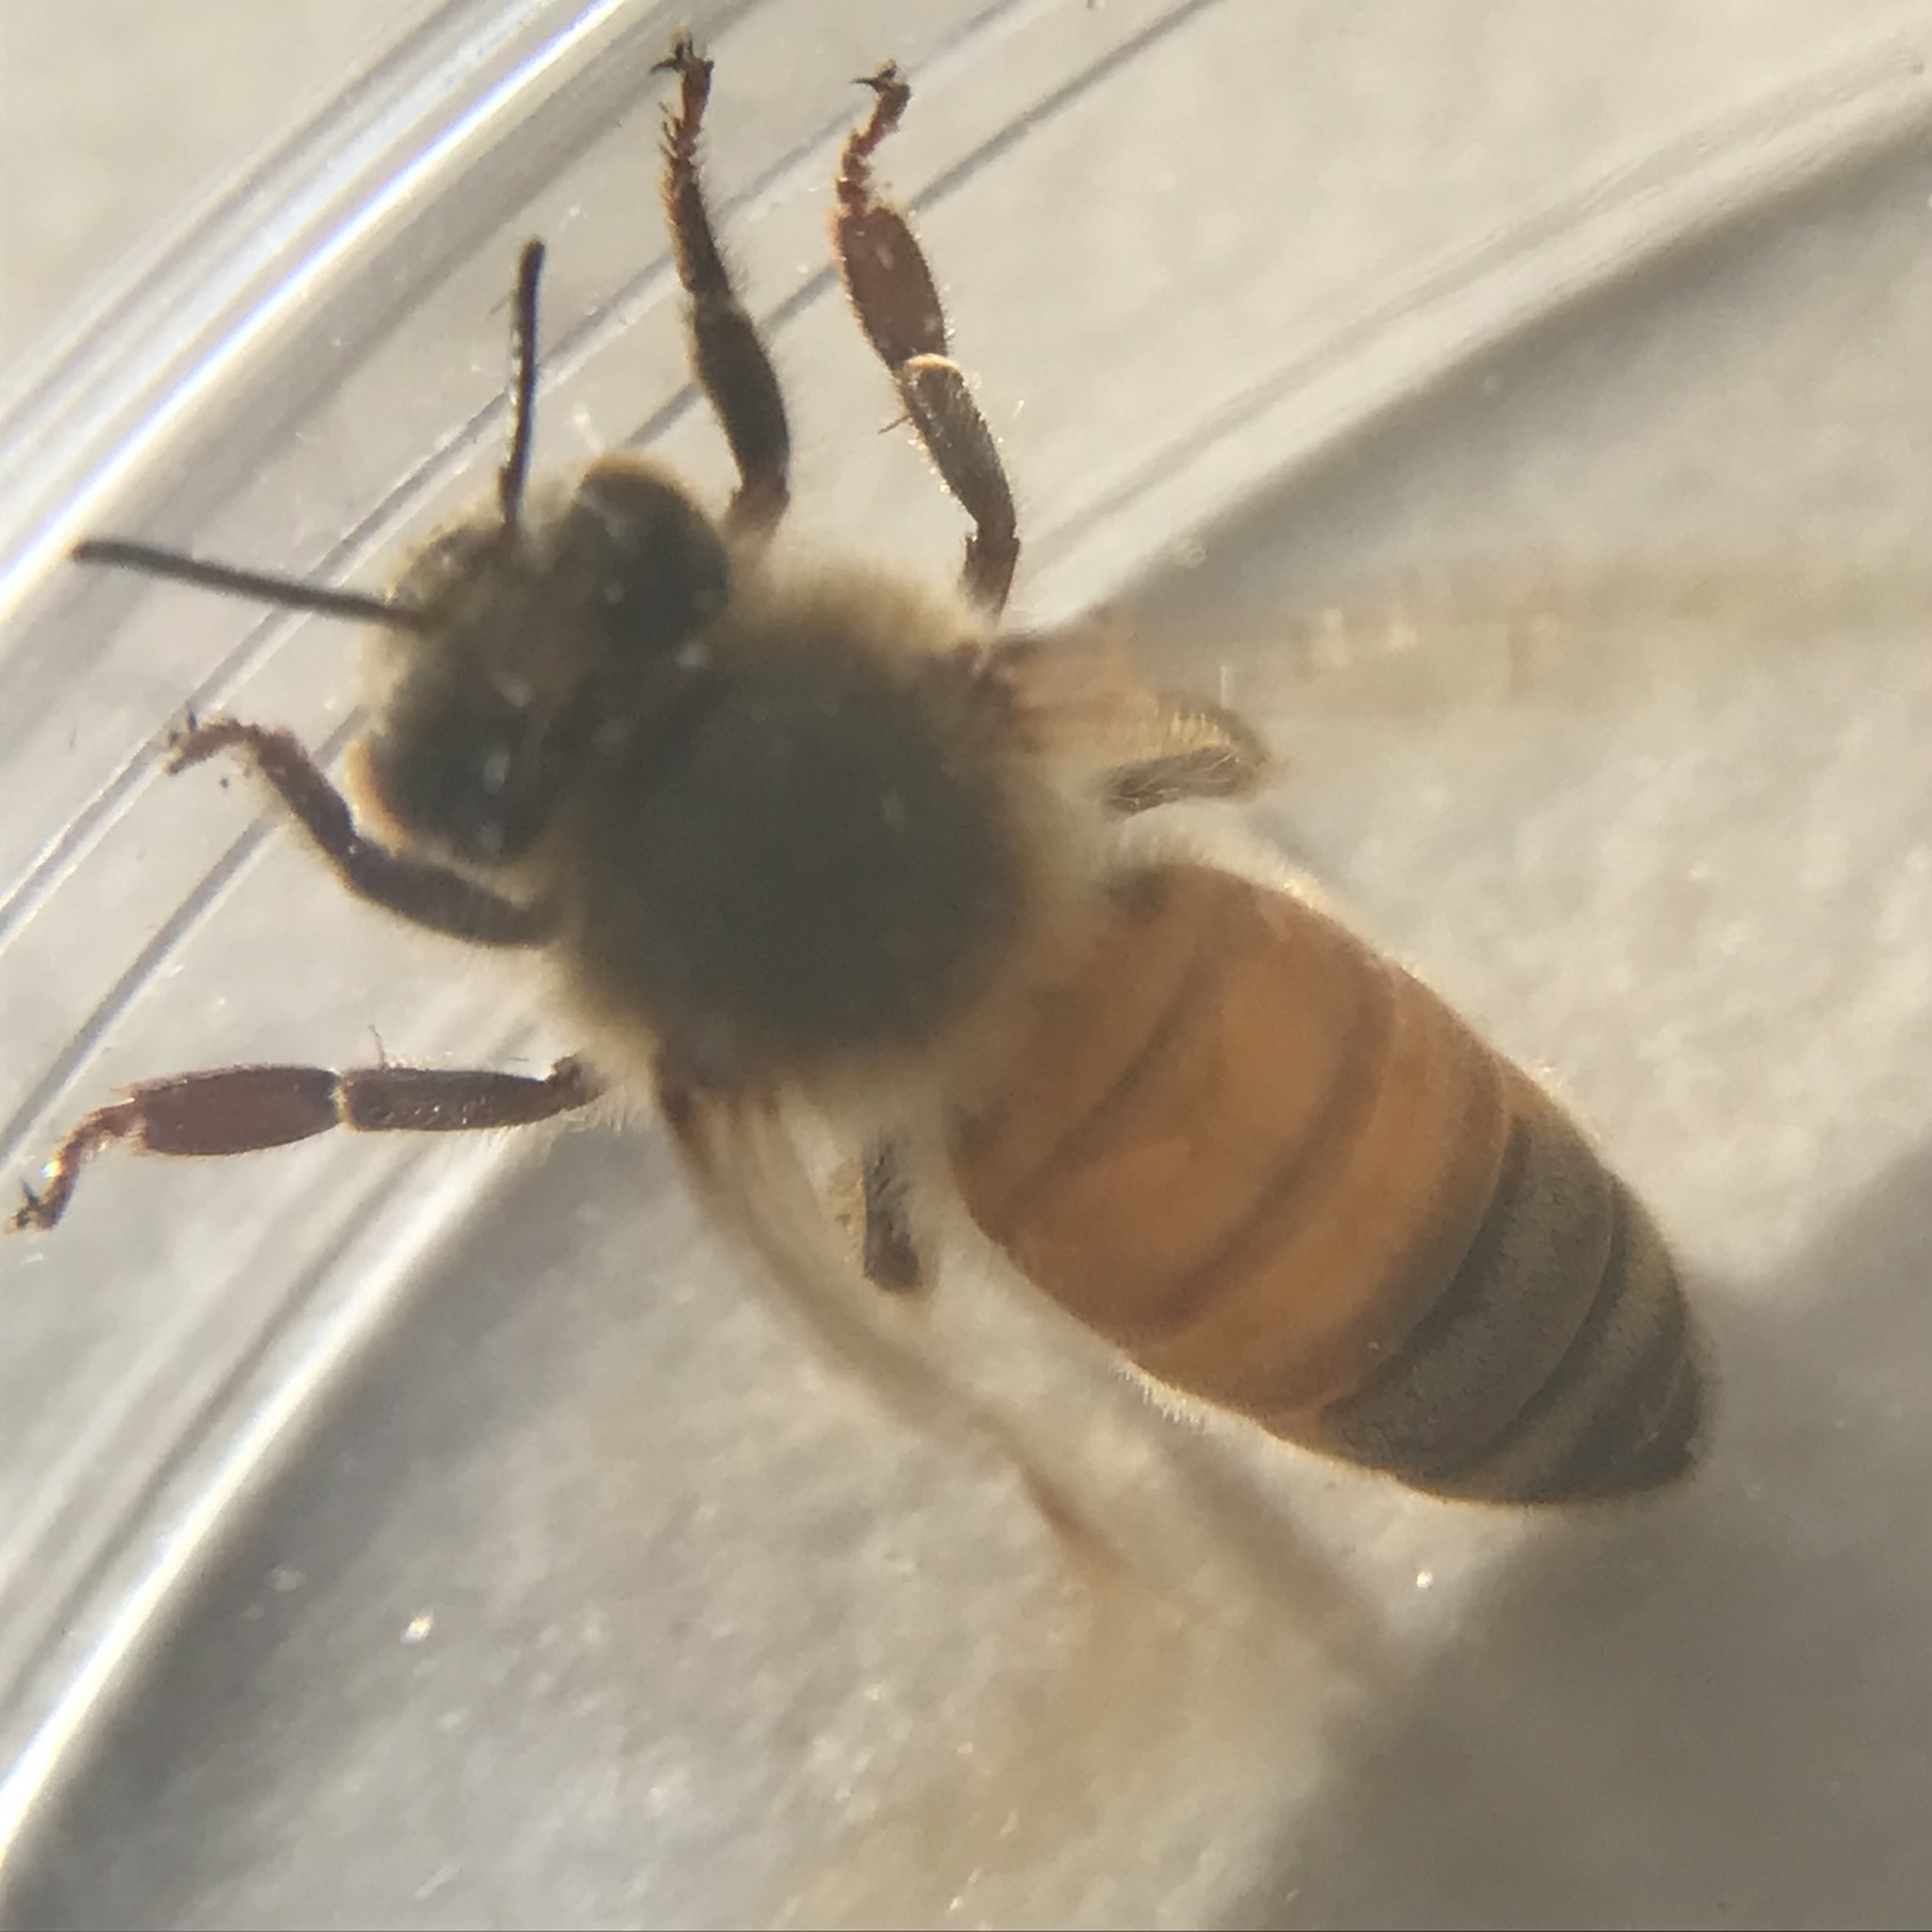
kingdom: Animalia
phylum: Arthropoda
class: Insecta
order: Hymenoptera
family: Apidae
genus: Apis
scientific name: Apis mellifera
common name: Honey bee
